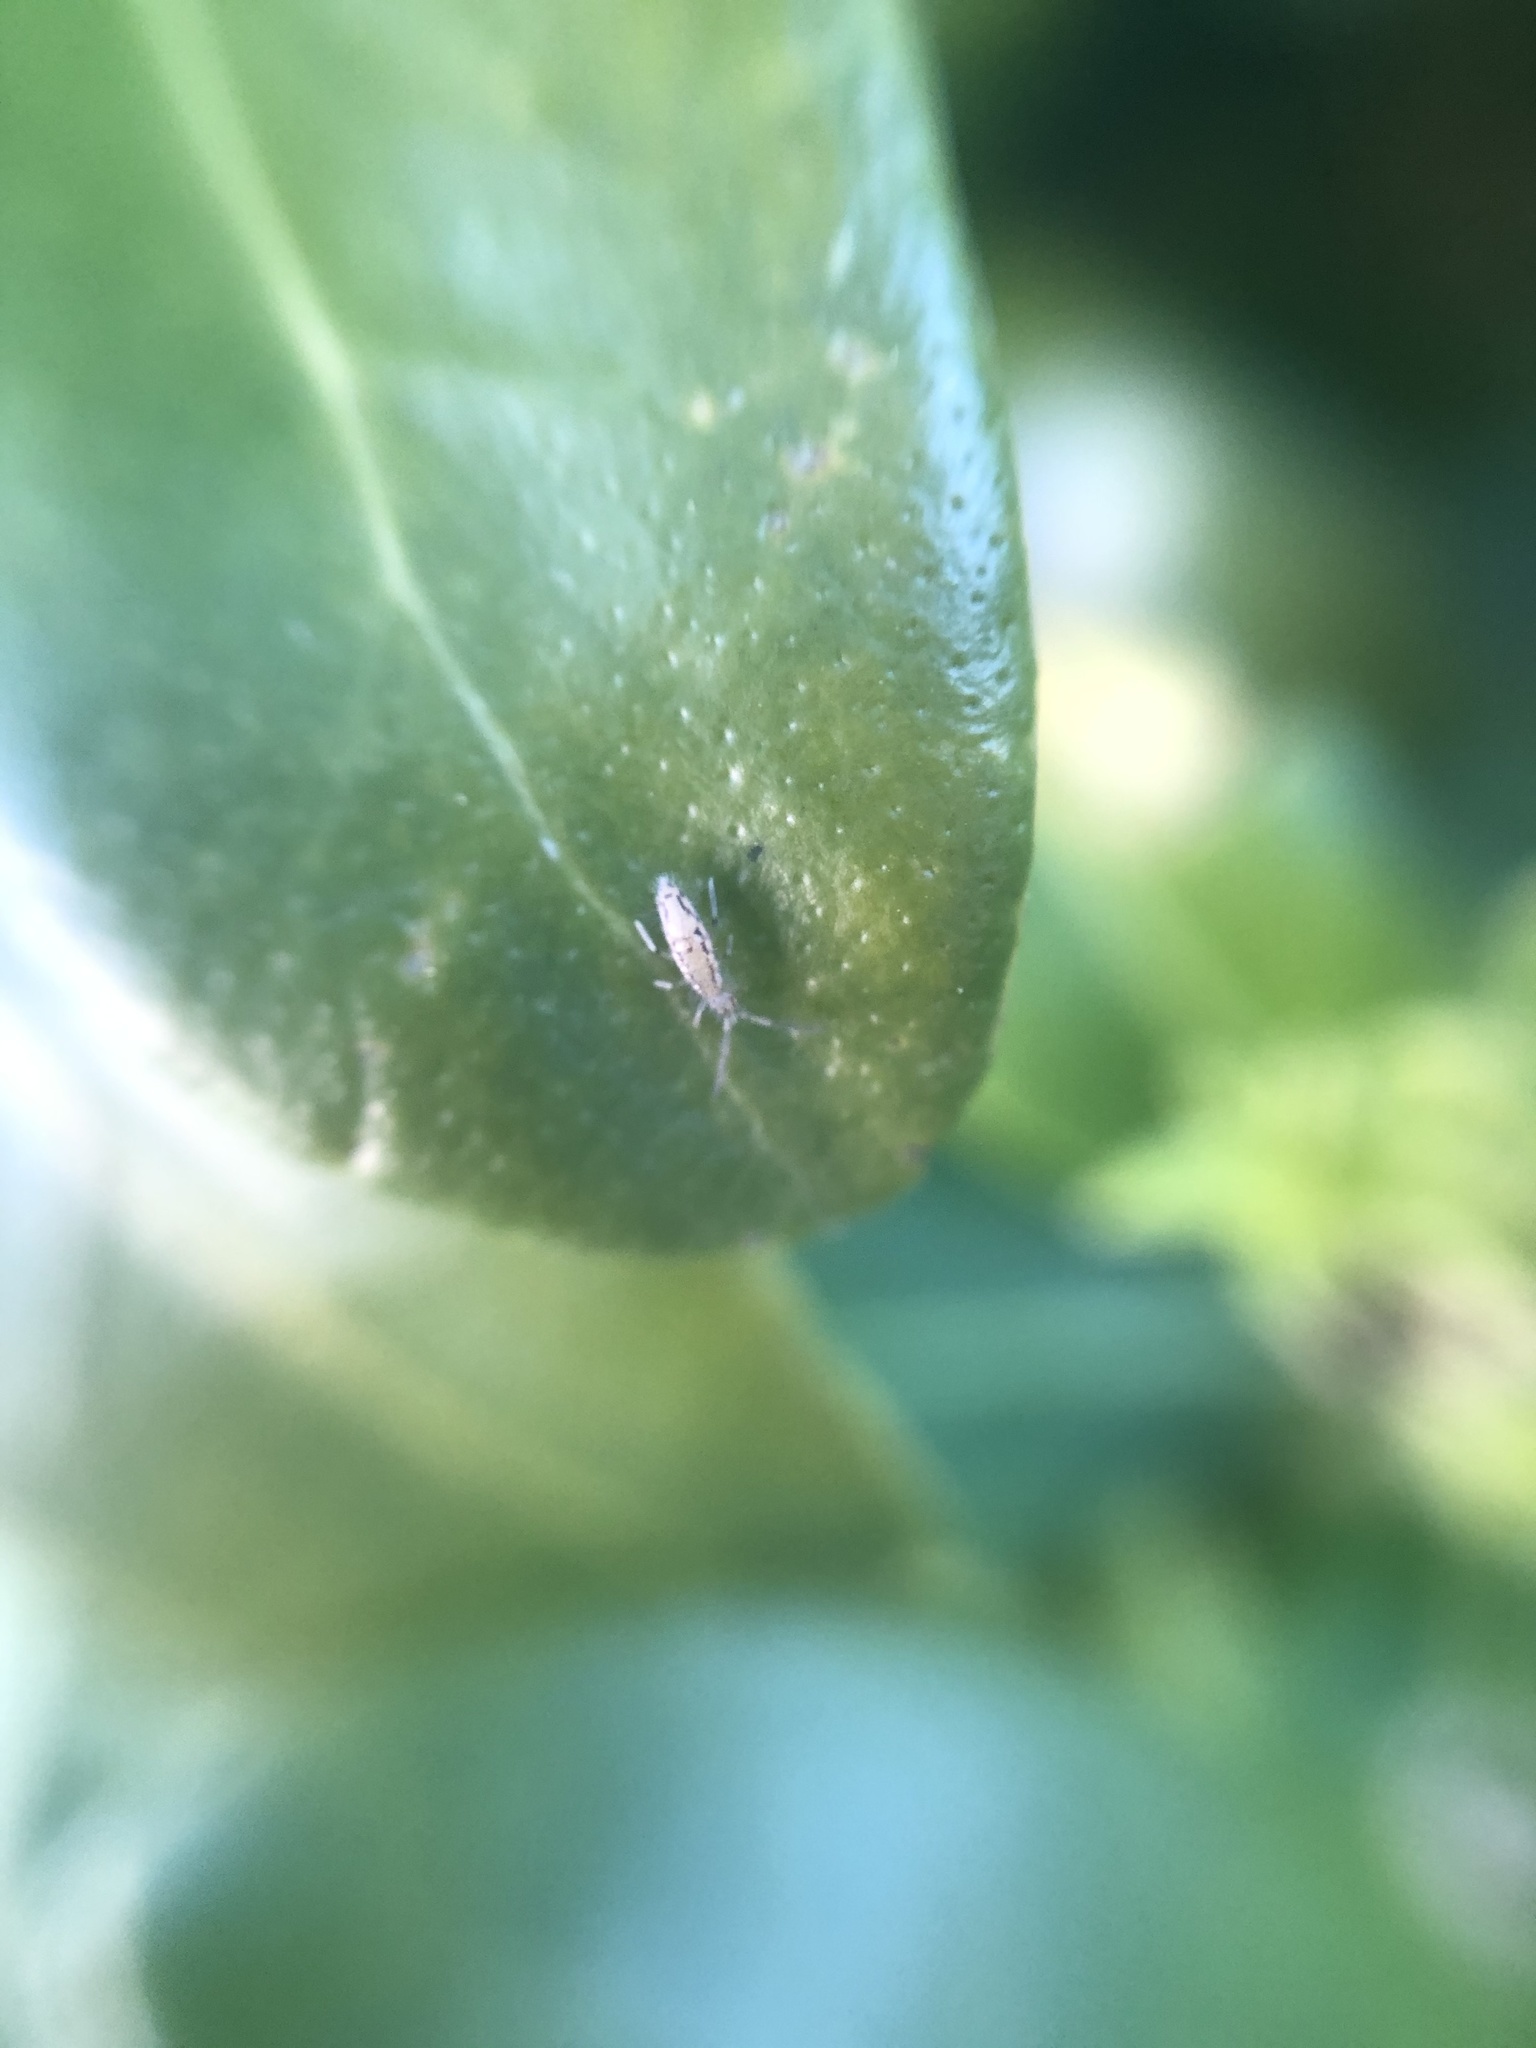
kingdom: Animalia
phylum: Arthropoda
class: Collembola
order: Entomobryomorpha
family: Entomobryidae
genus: Entomobrya
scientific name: Entomobrya intermedia
